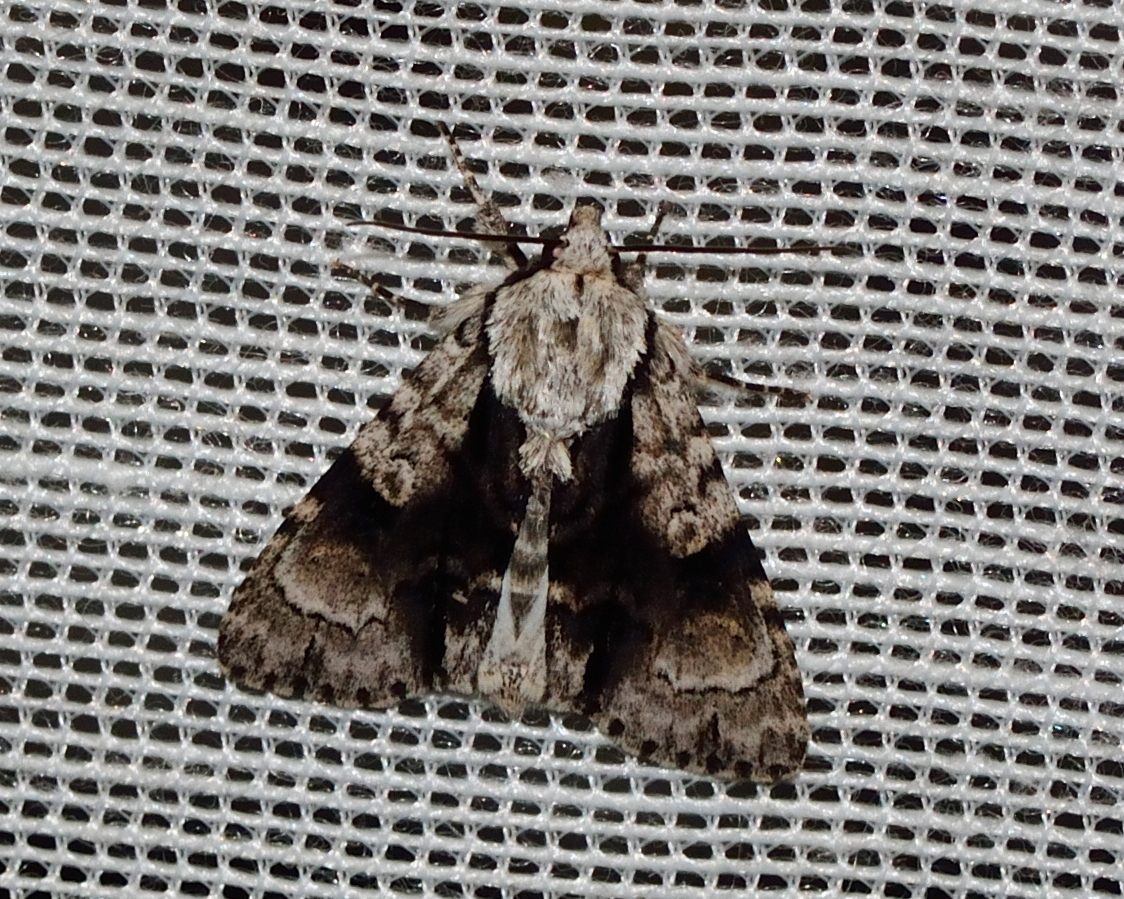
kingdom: Animalia
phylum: Arthropoda
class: Insecta
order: Lepidoptera
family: Noctuidae
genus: Acronicta
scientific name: Acronicta alni
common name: Alder moth
